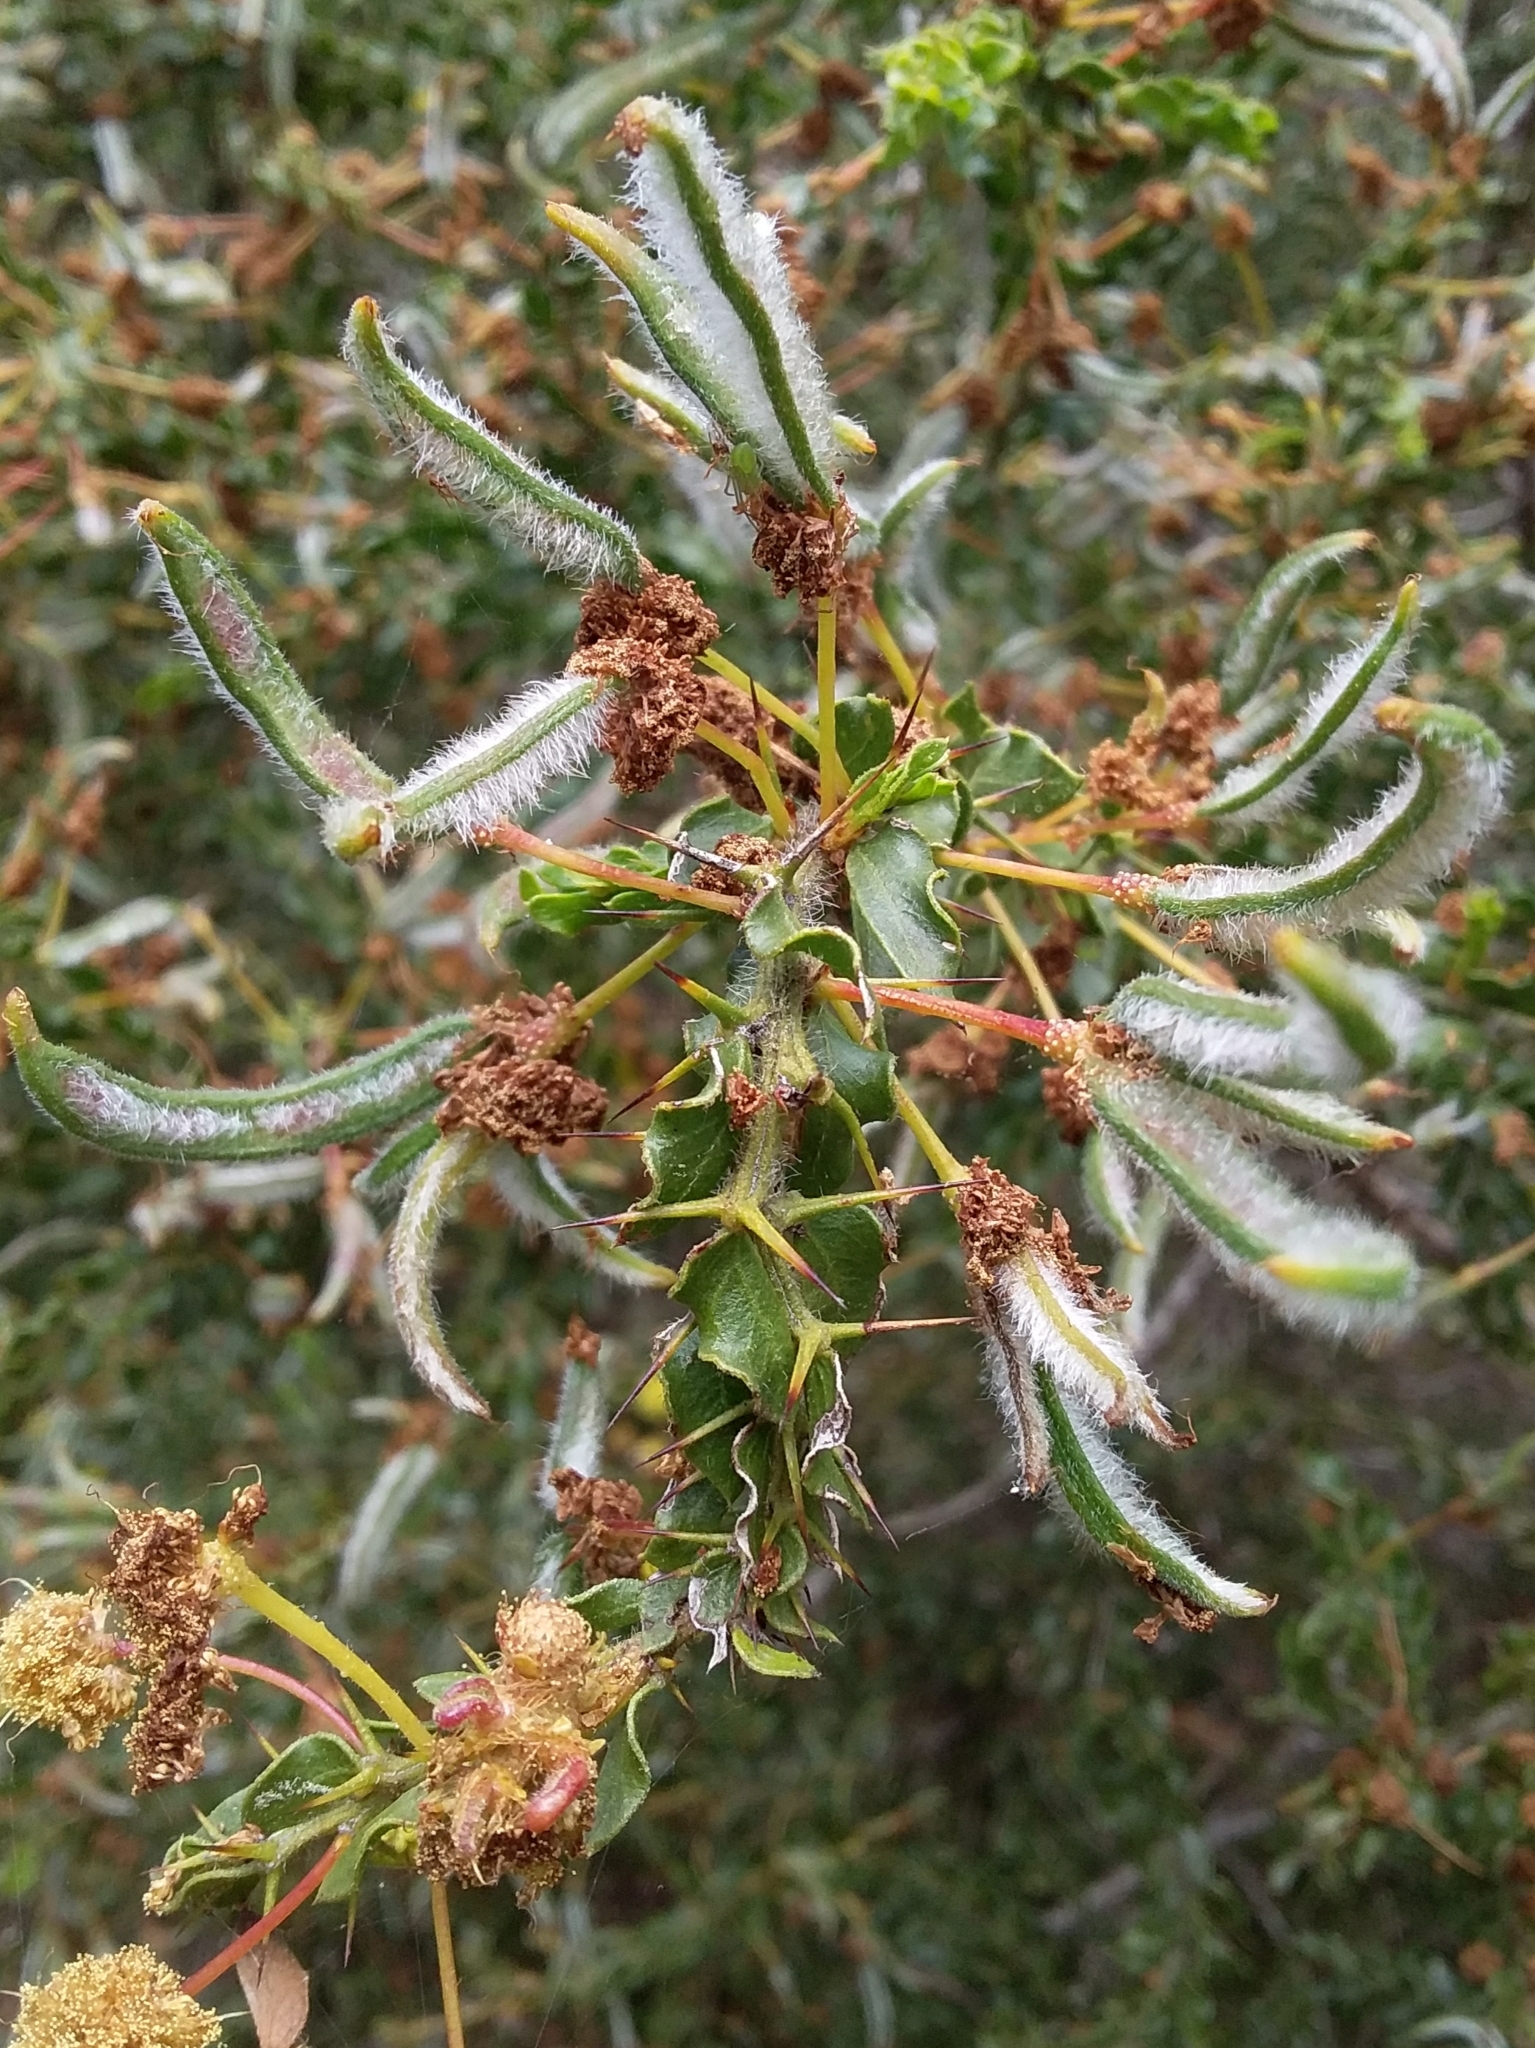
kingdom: Plantae
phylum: Tracheophyta
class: Magnoliopsida
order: Fabales
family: Fabaceae
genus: Acacia
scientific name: Acacia paradoxa
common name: Paradox acacia
